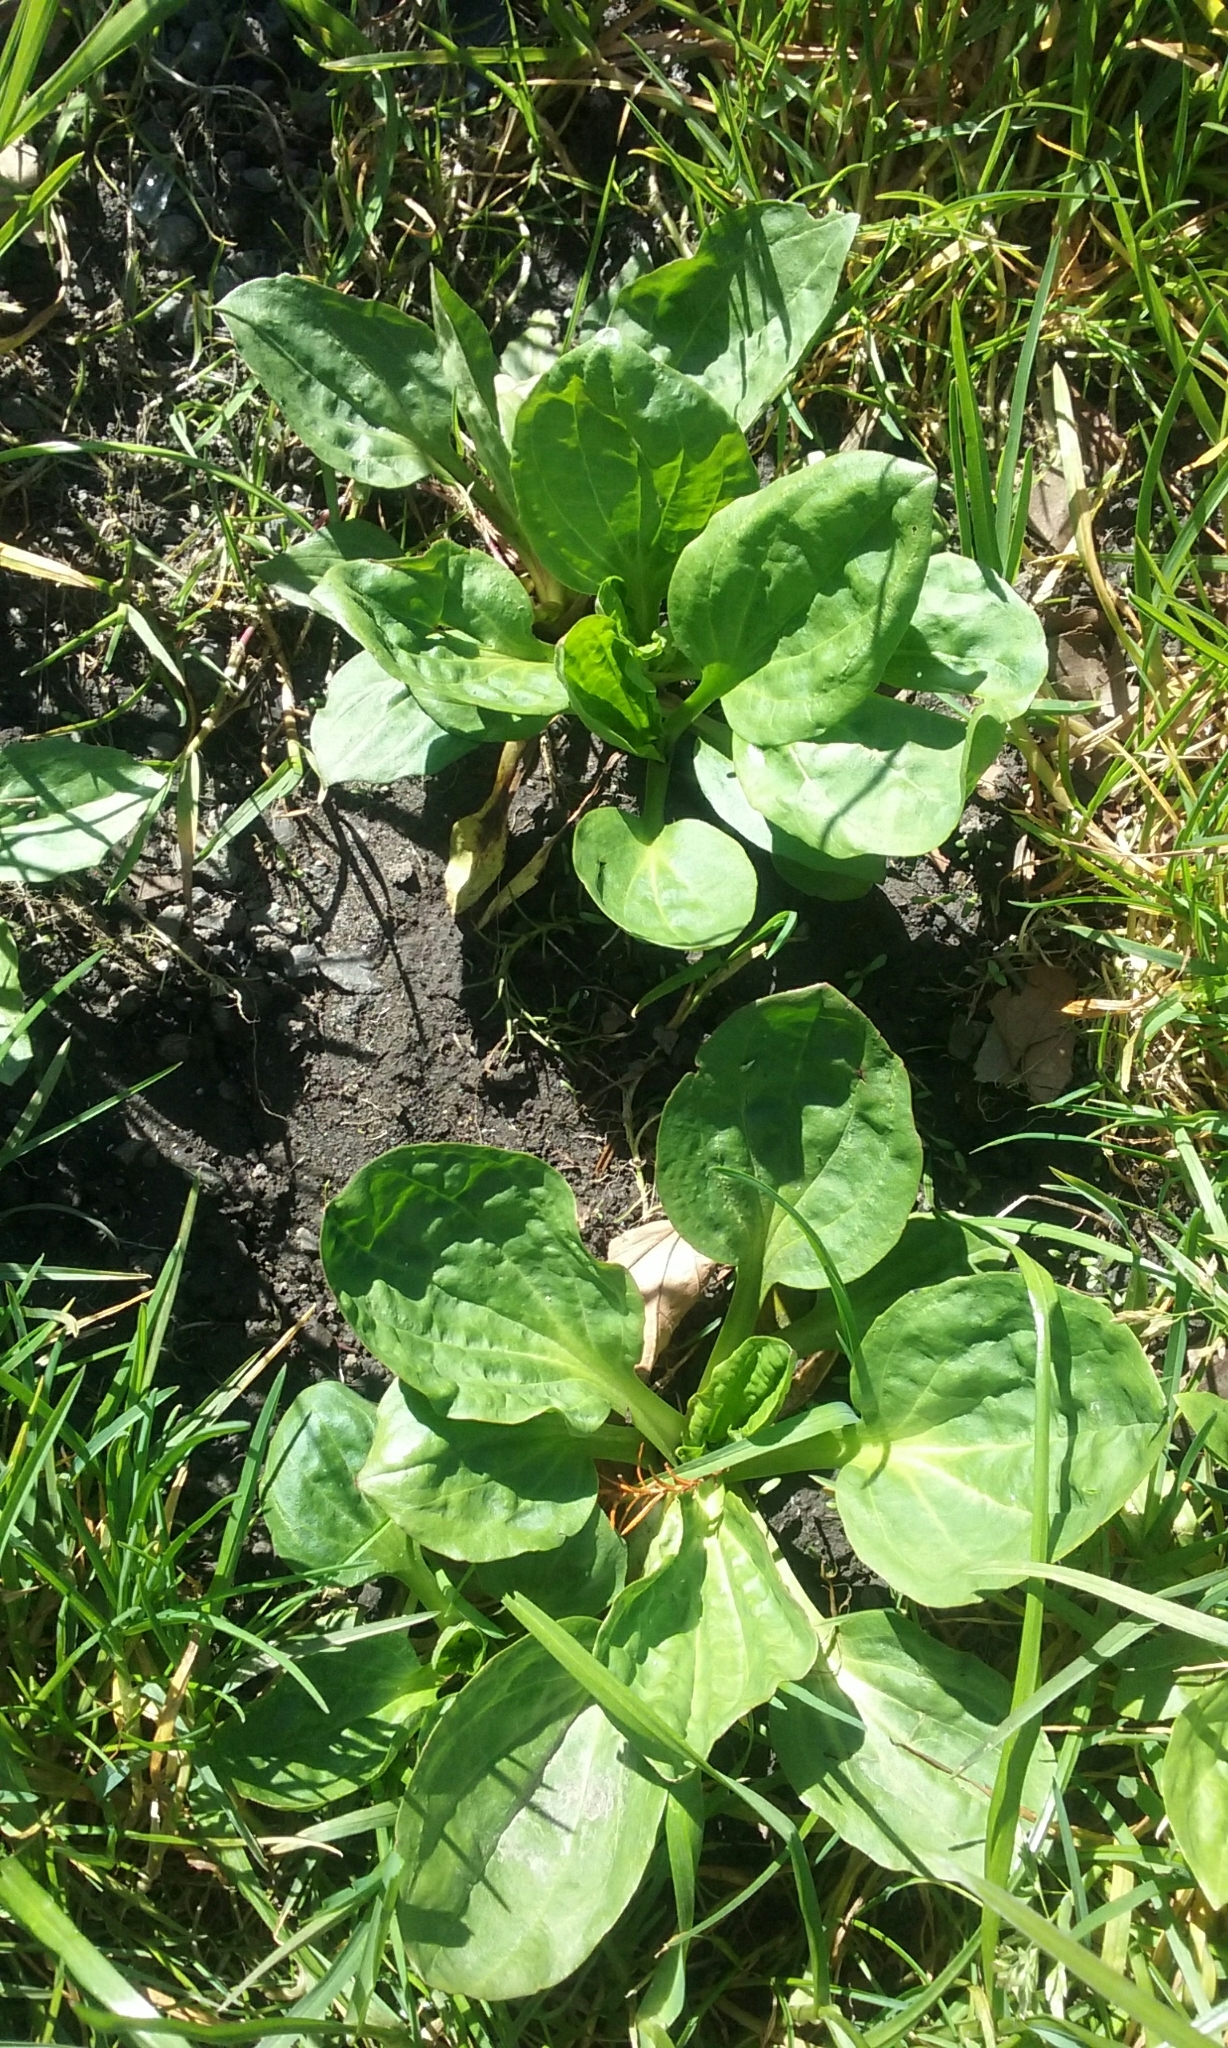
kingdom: Plantae
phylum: Tracheophyta
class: Magnoliopsida
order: Lamiales
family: Plantaginaceae
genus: Plantago
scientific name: Plantago major
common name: Common plantain
